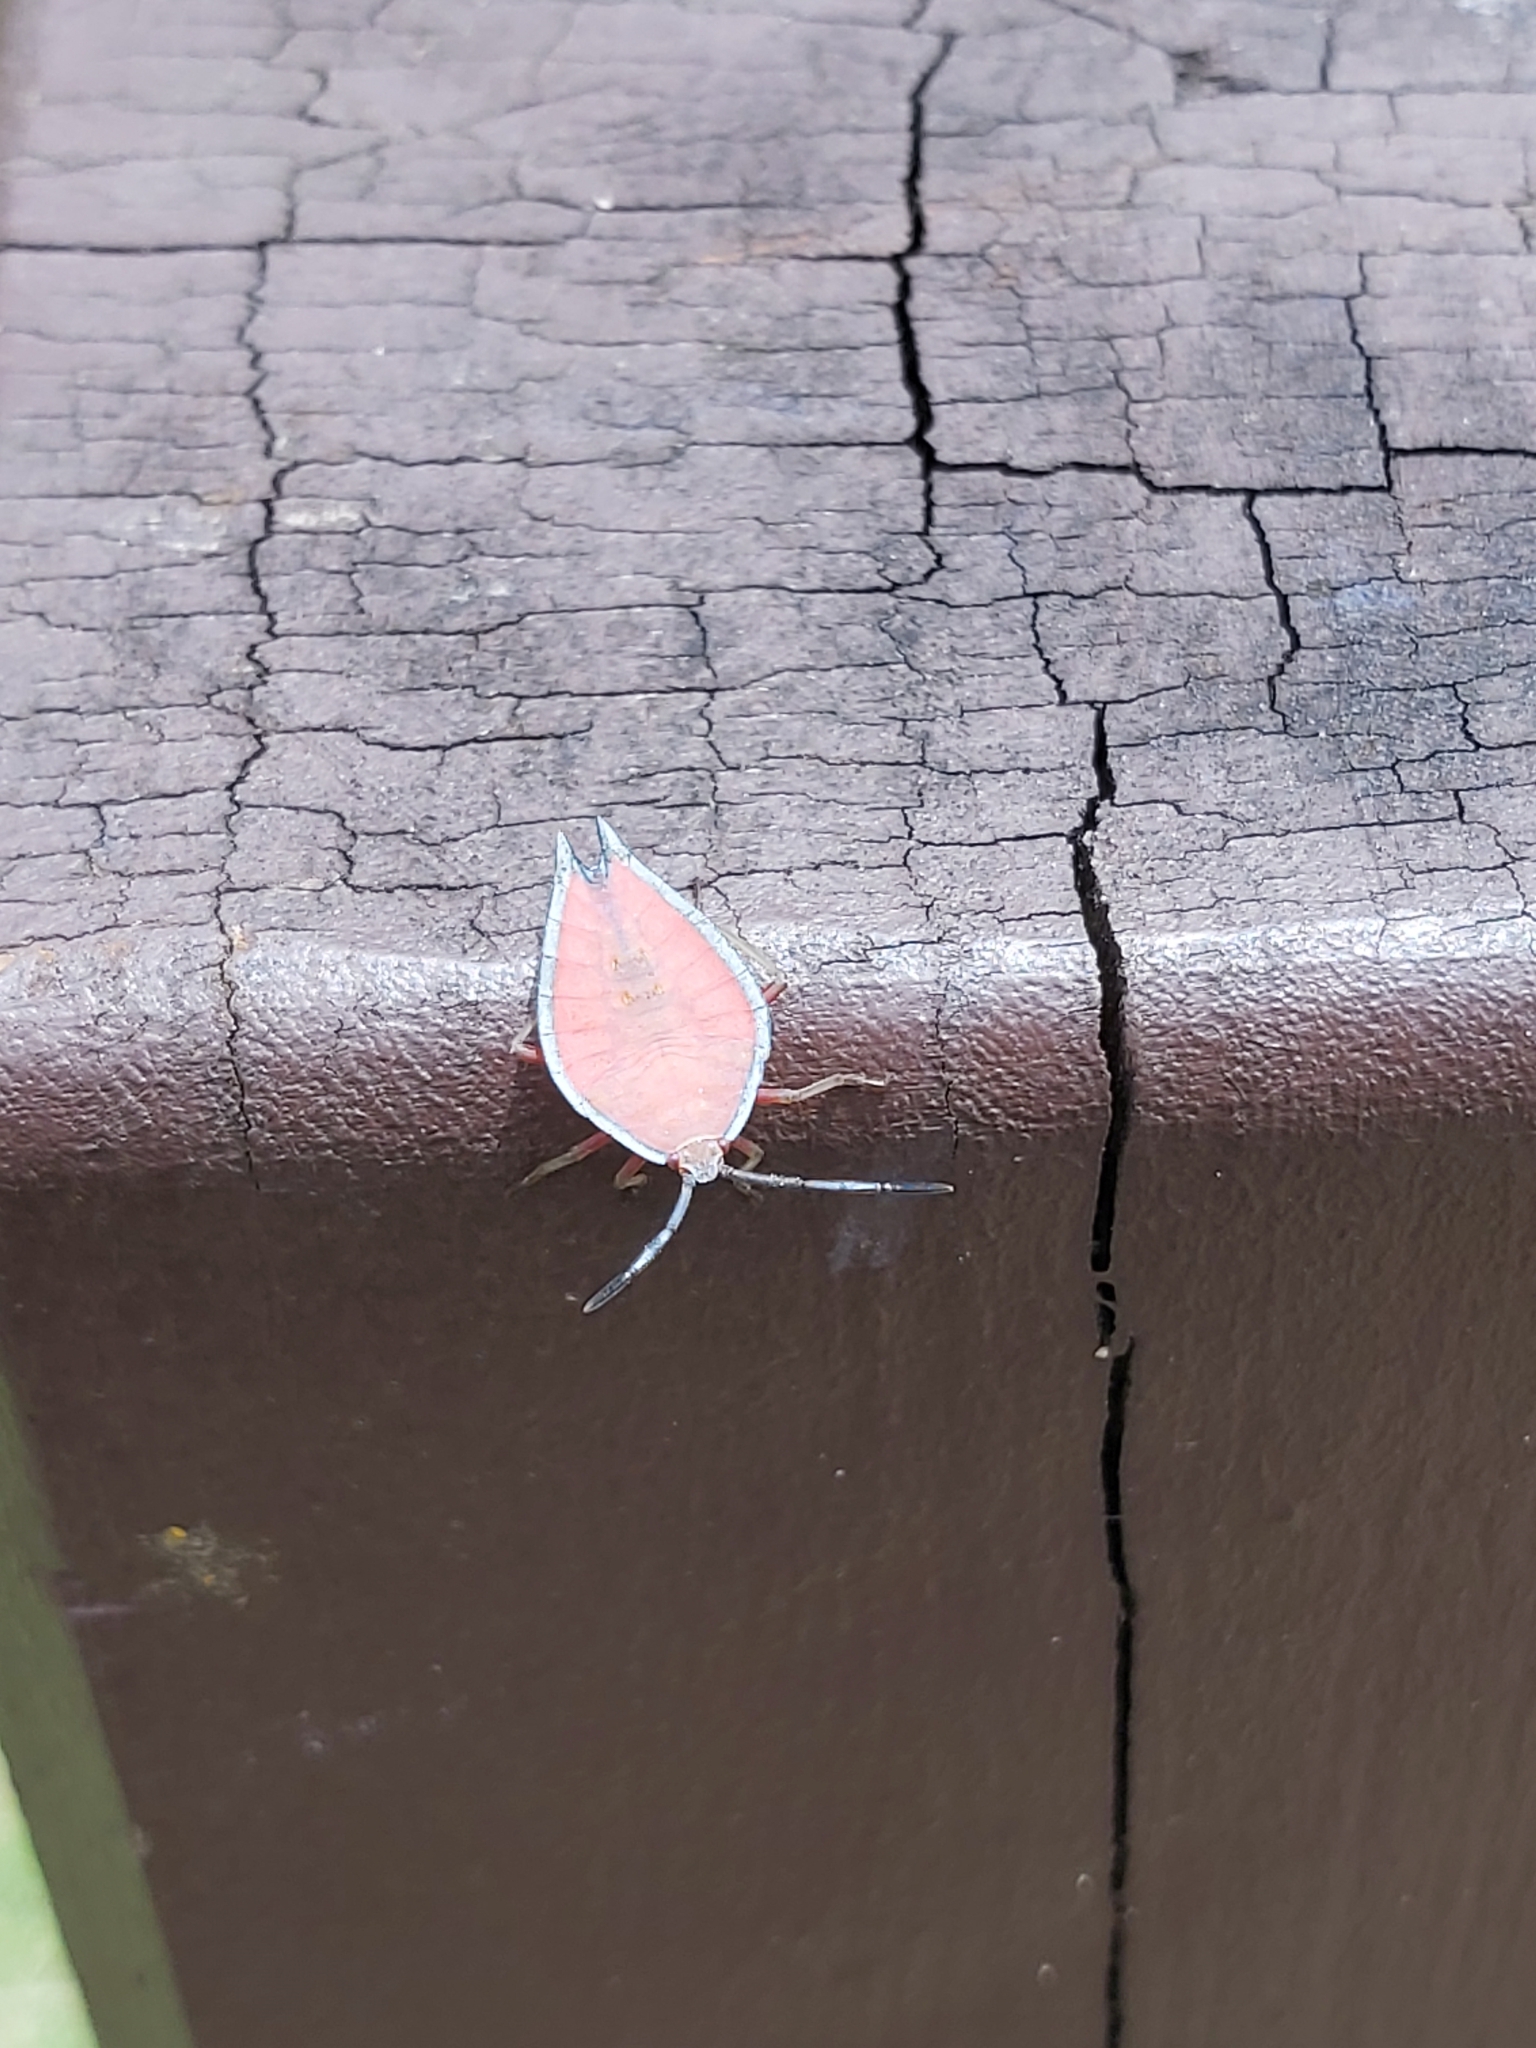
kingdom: Animalia
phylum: Arthropoda
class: Insecta
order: Hemiptera
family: Tessaratomidae
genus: Lyramorpha
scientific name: Lyramorpha rosea
